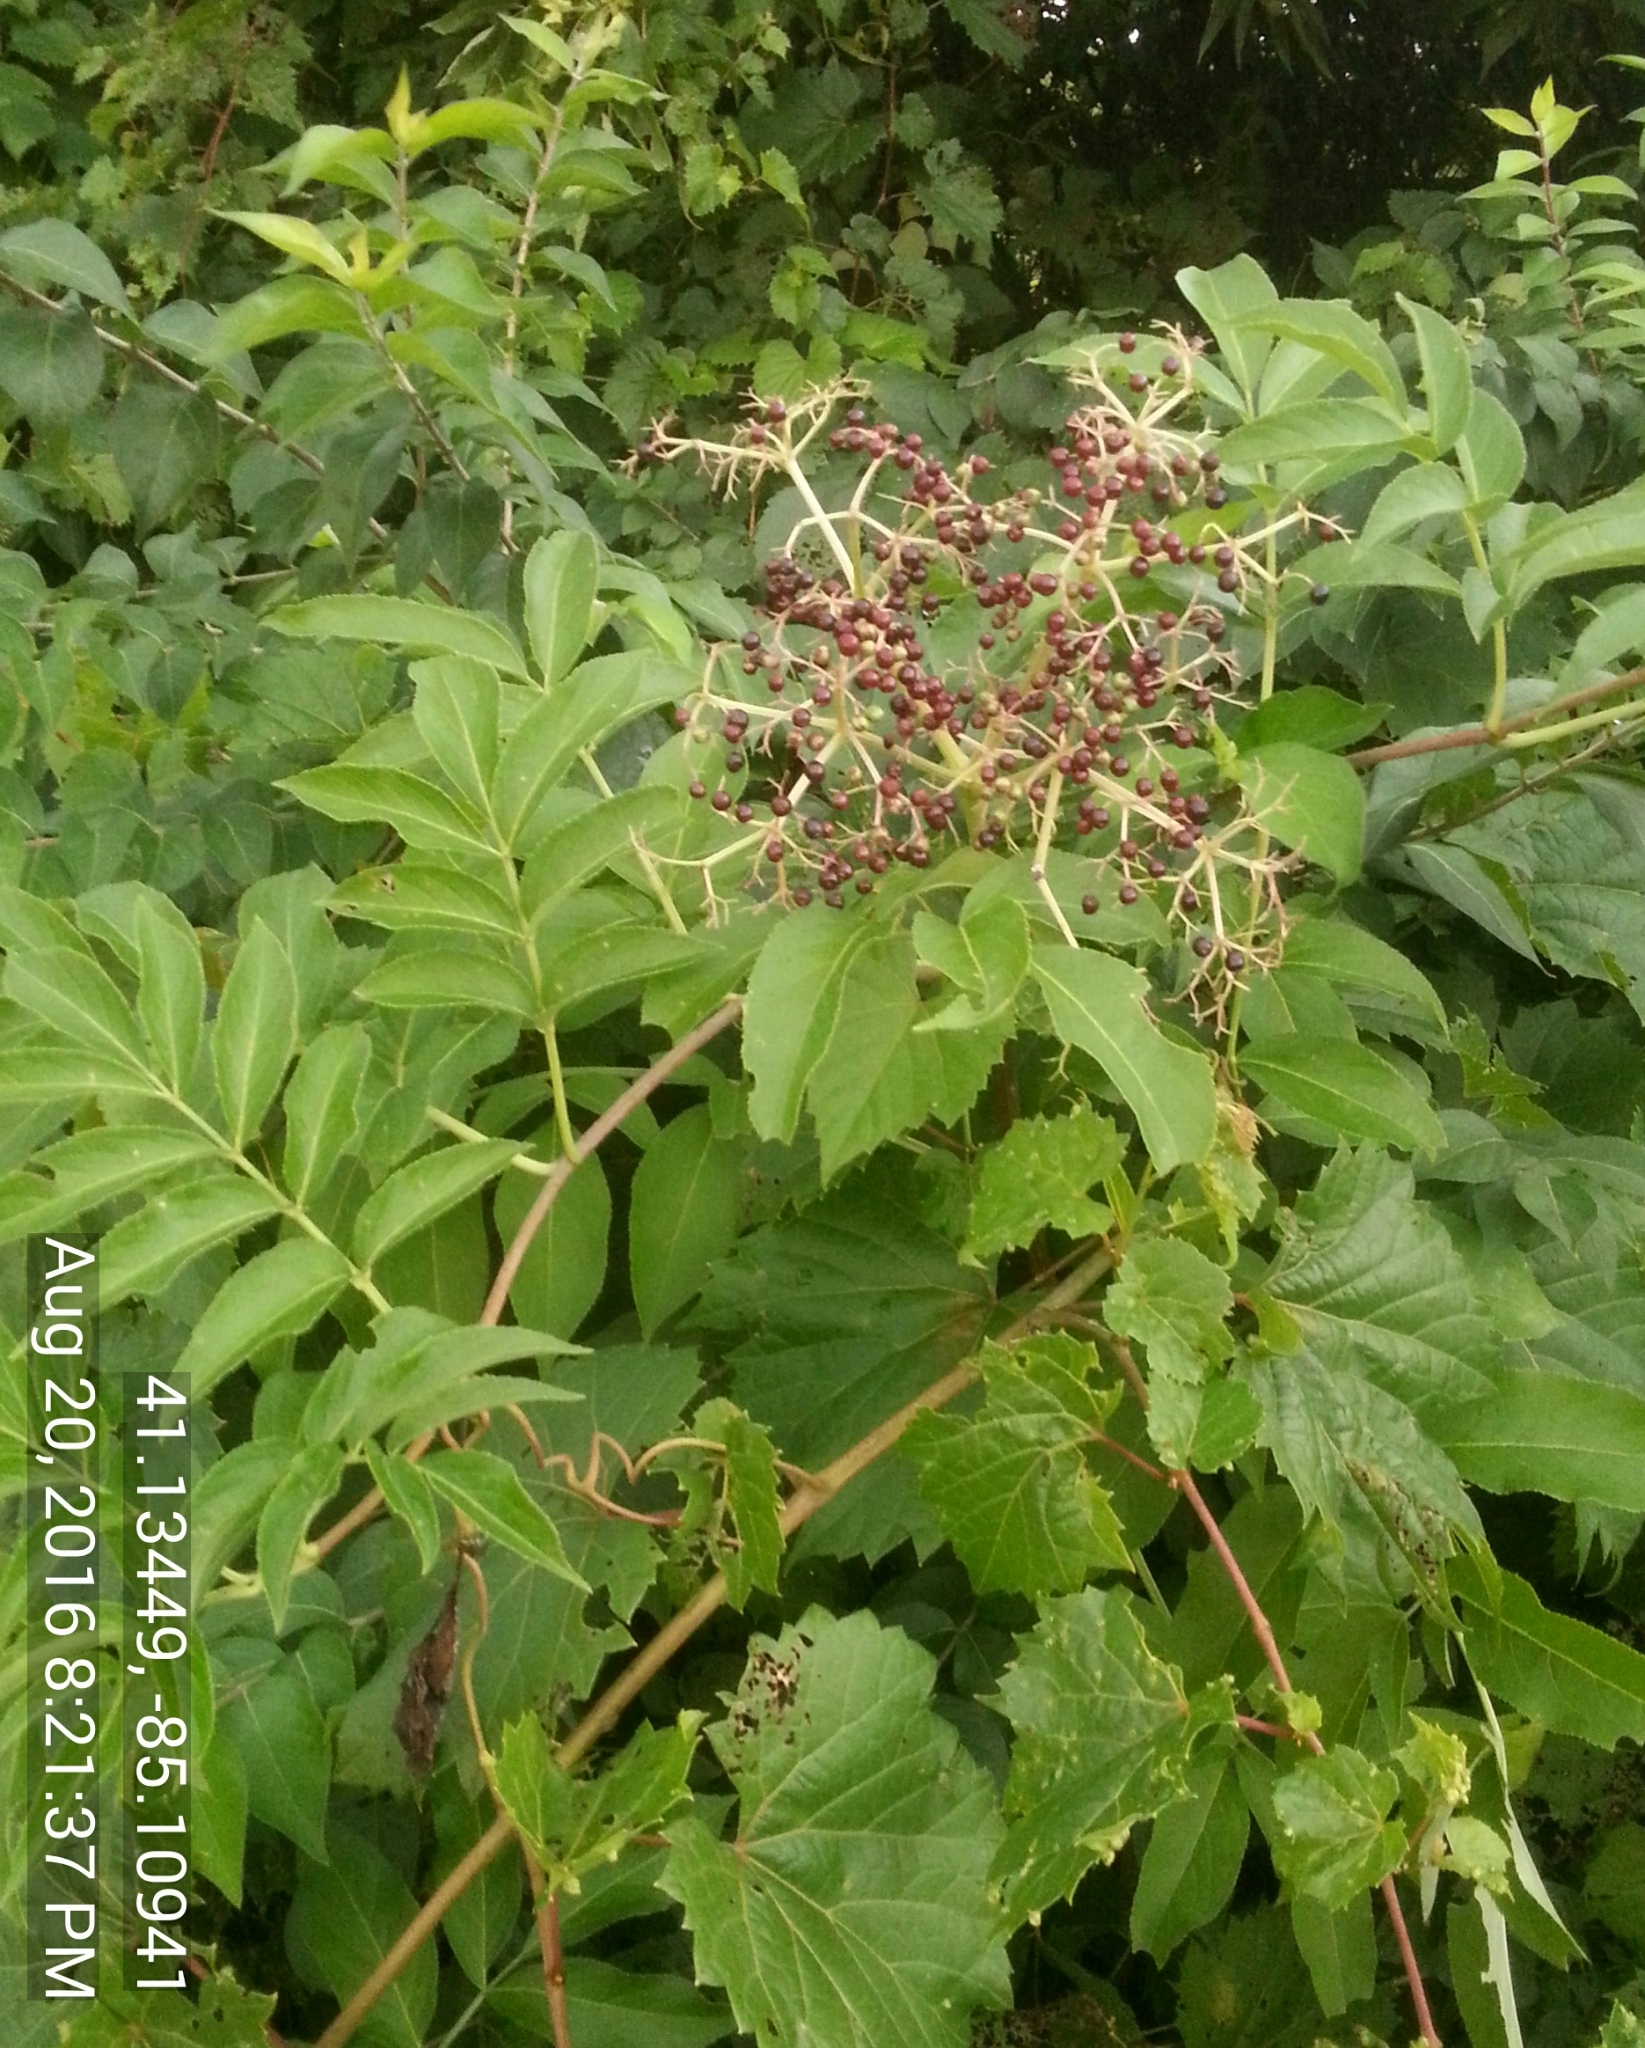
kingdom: Plantae
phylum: Tracheophyta
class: Magnoliopsida
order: Dipsacales
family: Viburnaceae
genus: Sambucus
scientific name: Sambucus canadensis
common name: American elder
